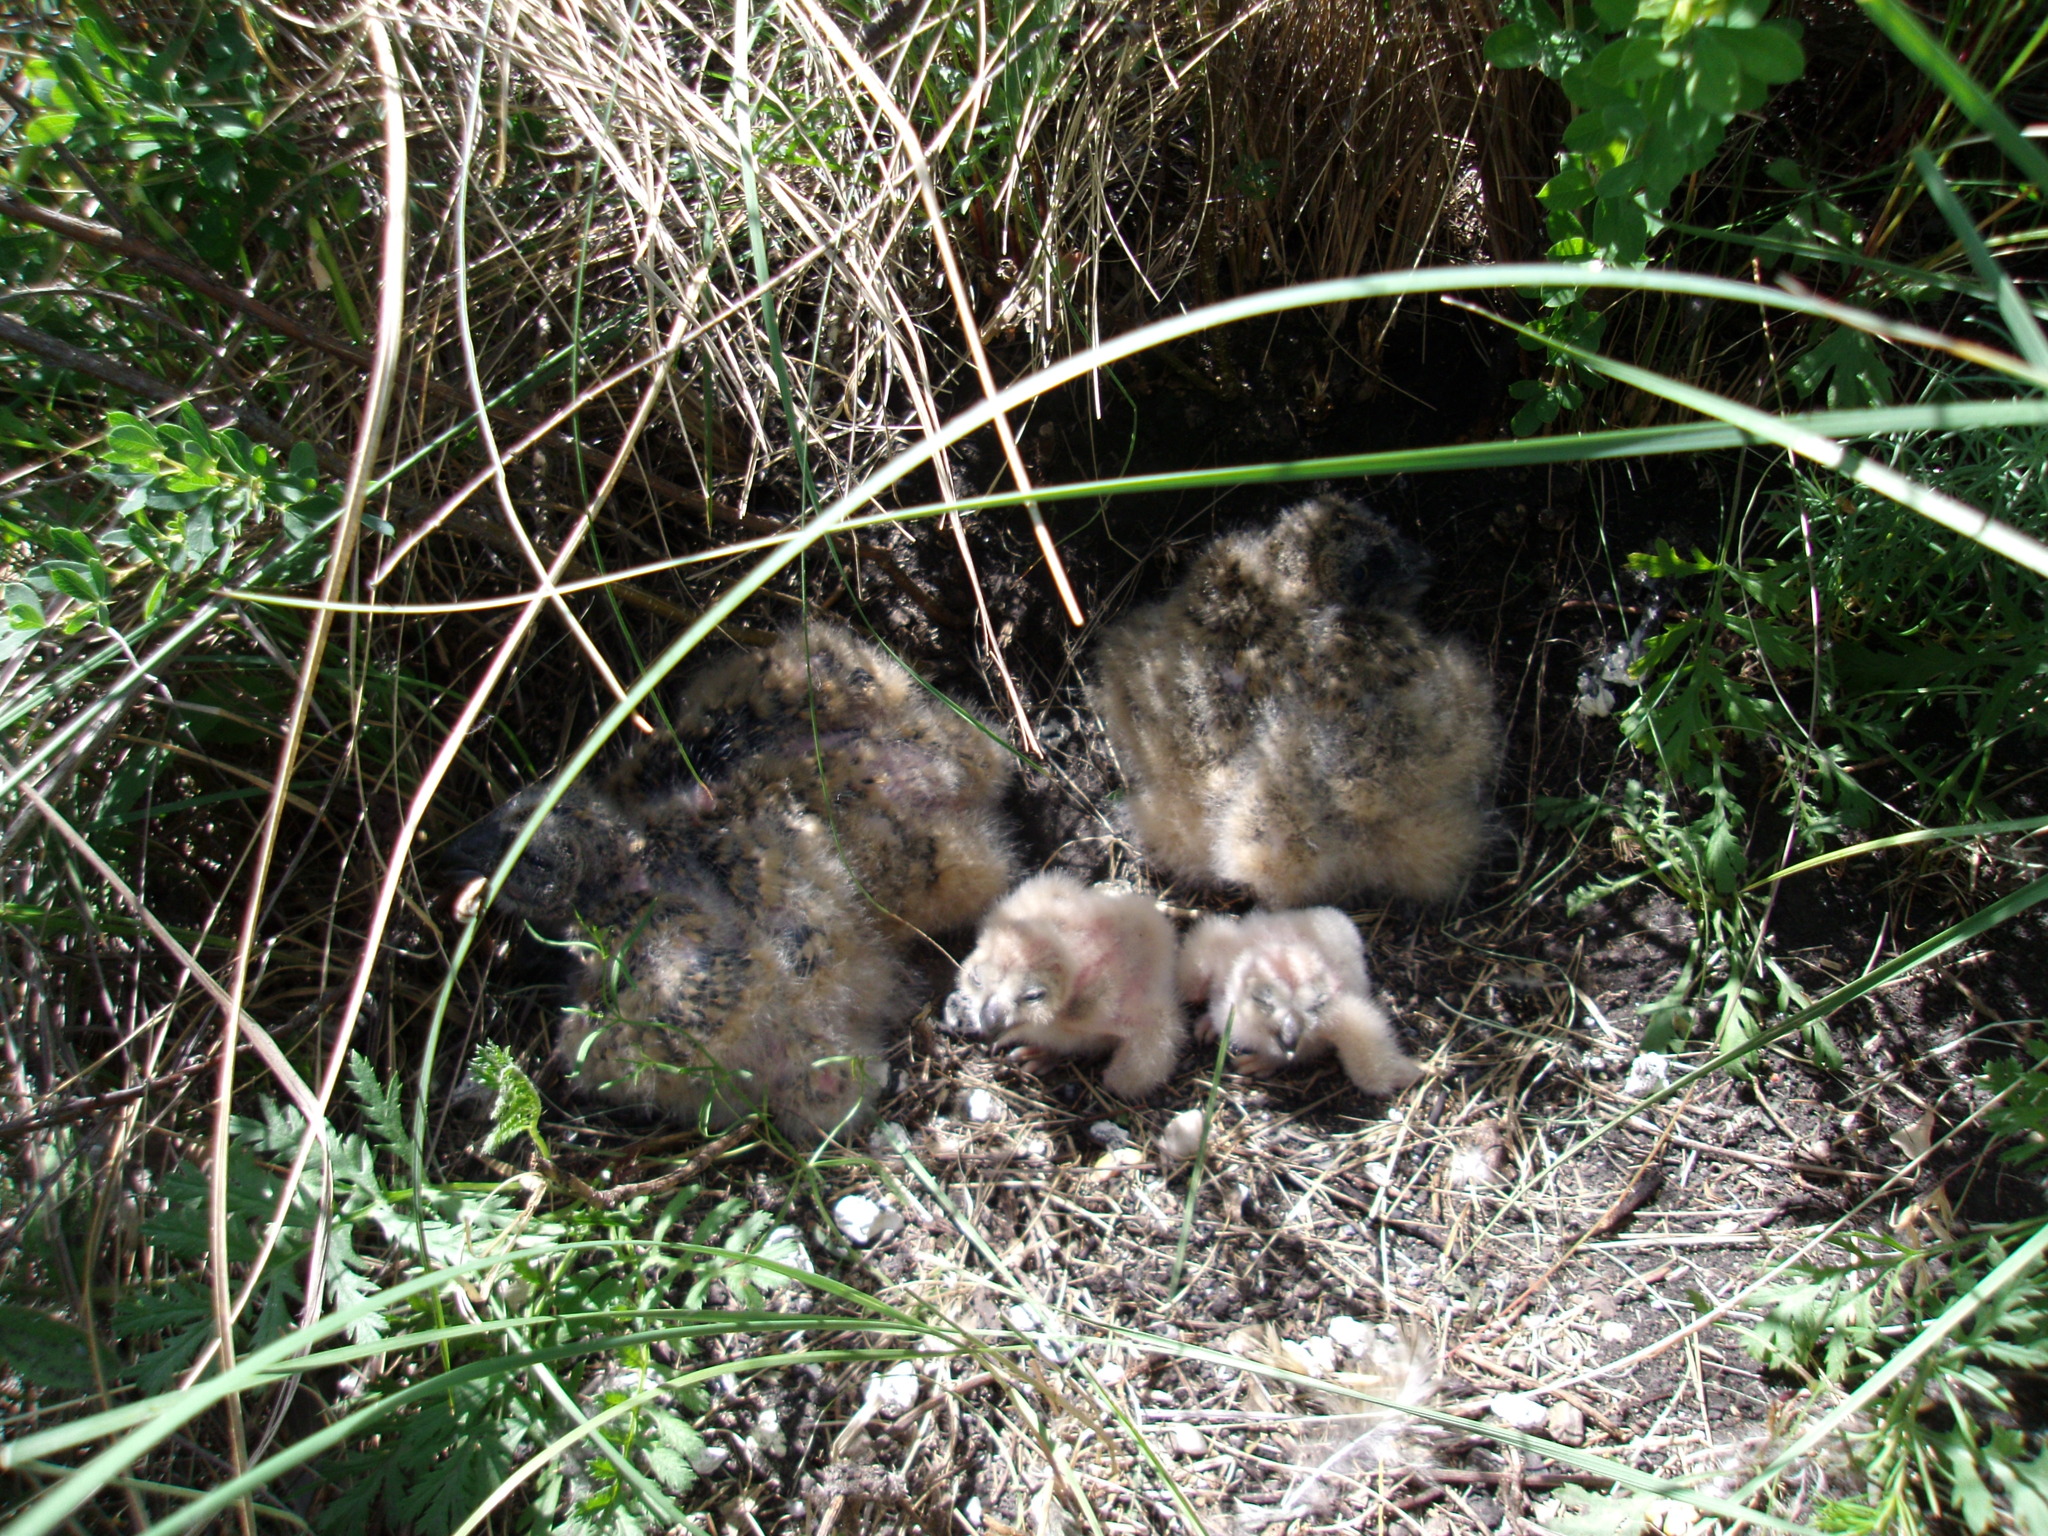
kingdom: Animalia
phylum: Chordata
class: Aves
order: Strigiformes
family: Strigidae
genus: Asio
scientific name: Asio flammeus
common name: Short-eared owl
